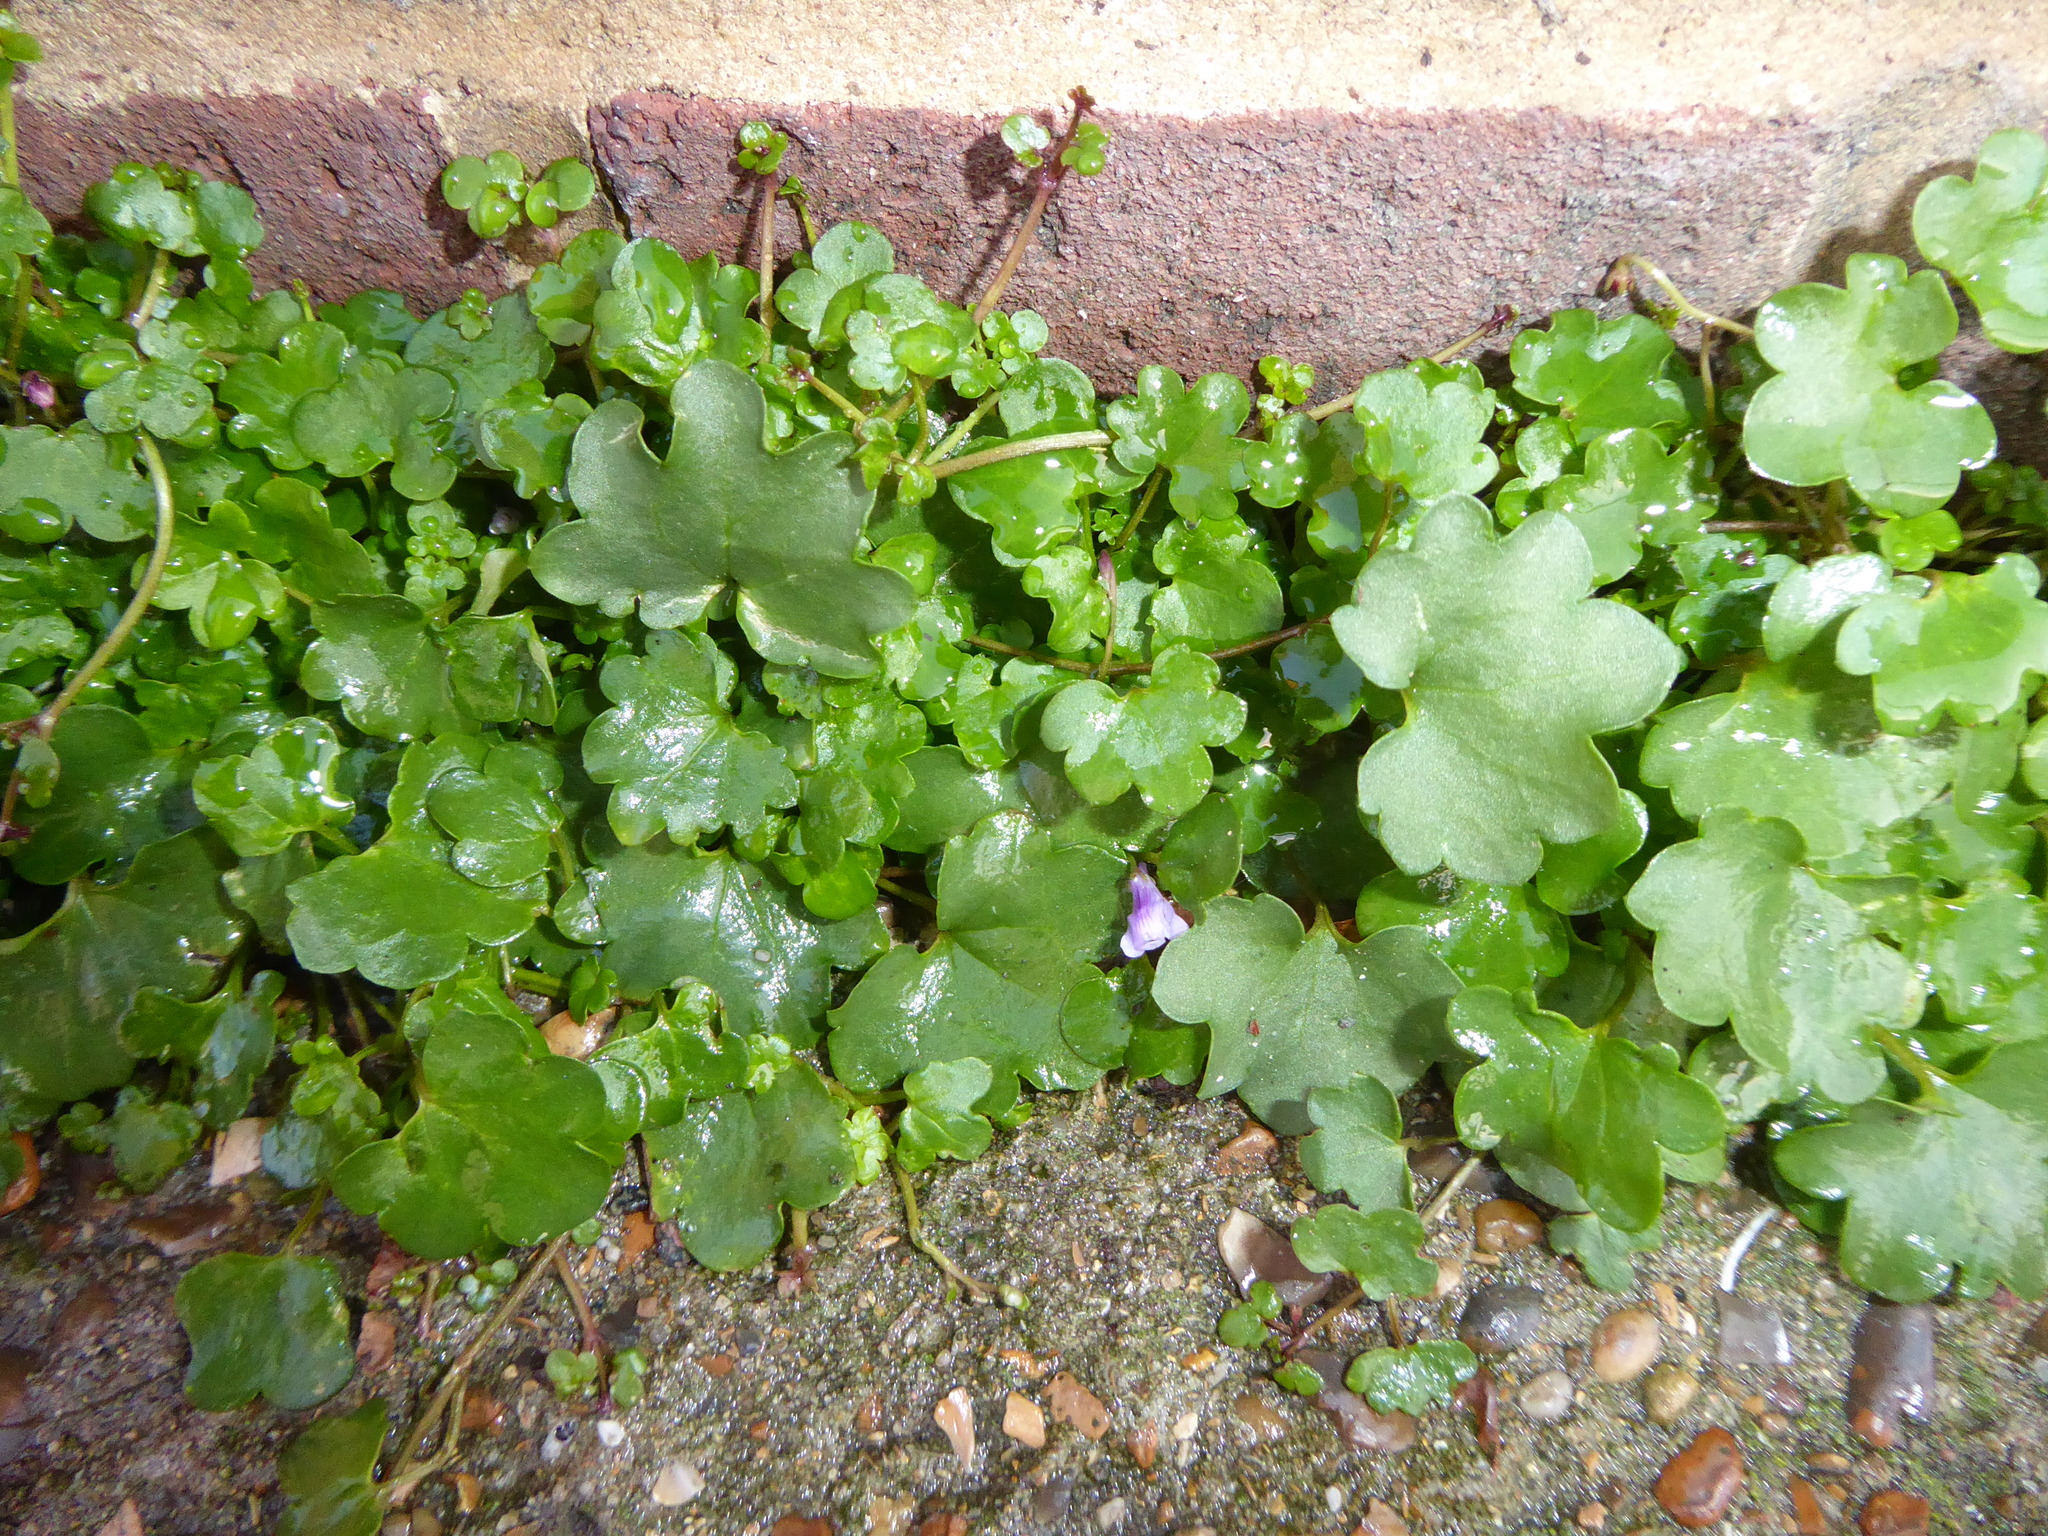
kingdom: Plantae
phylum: Tracheophyta
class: Magnoliopsida
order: Lamiales
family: Plantaginaceae
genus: Cymbalaria
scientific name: Cymbalaria muralis
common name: Ivy-leaved toadflax
